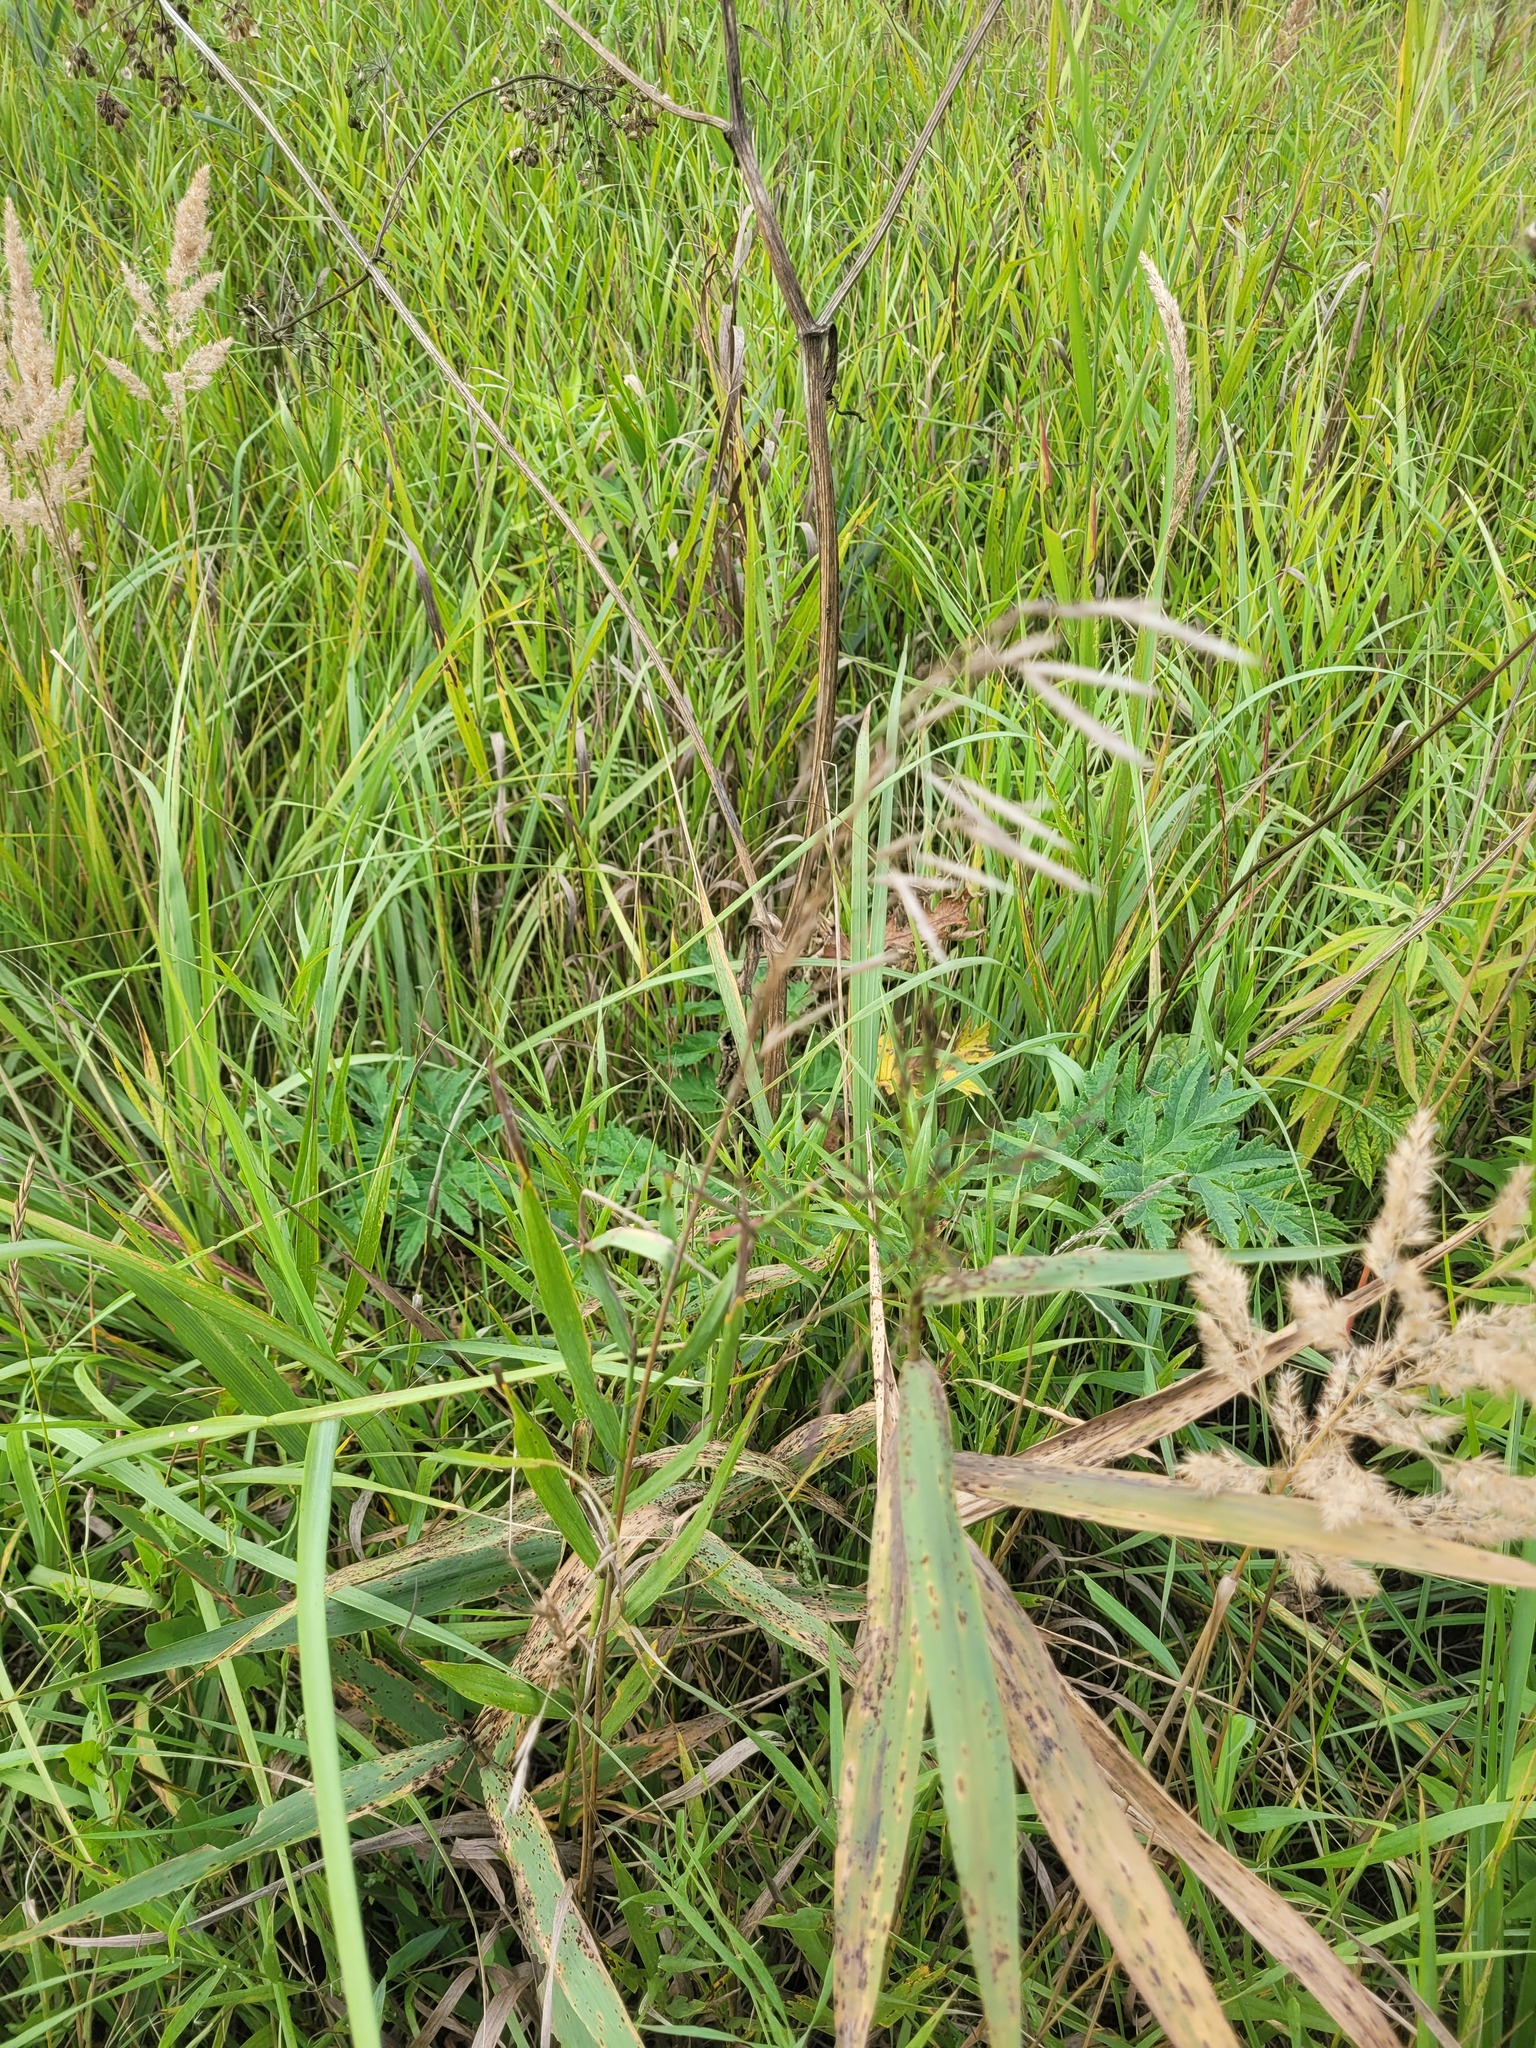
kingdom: Plantae
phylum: Tracheophyta
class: Liliopsida
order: Poales
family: Poaceae
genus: Bromus
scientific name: Bromus inermis
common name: Smooth brome
